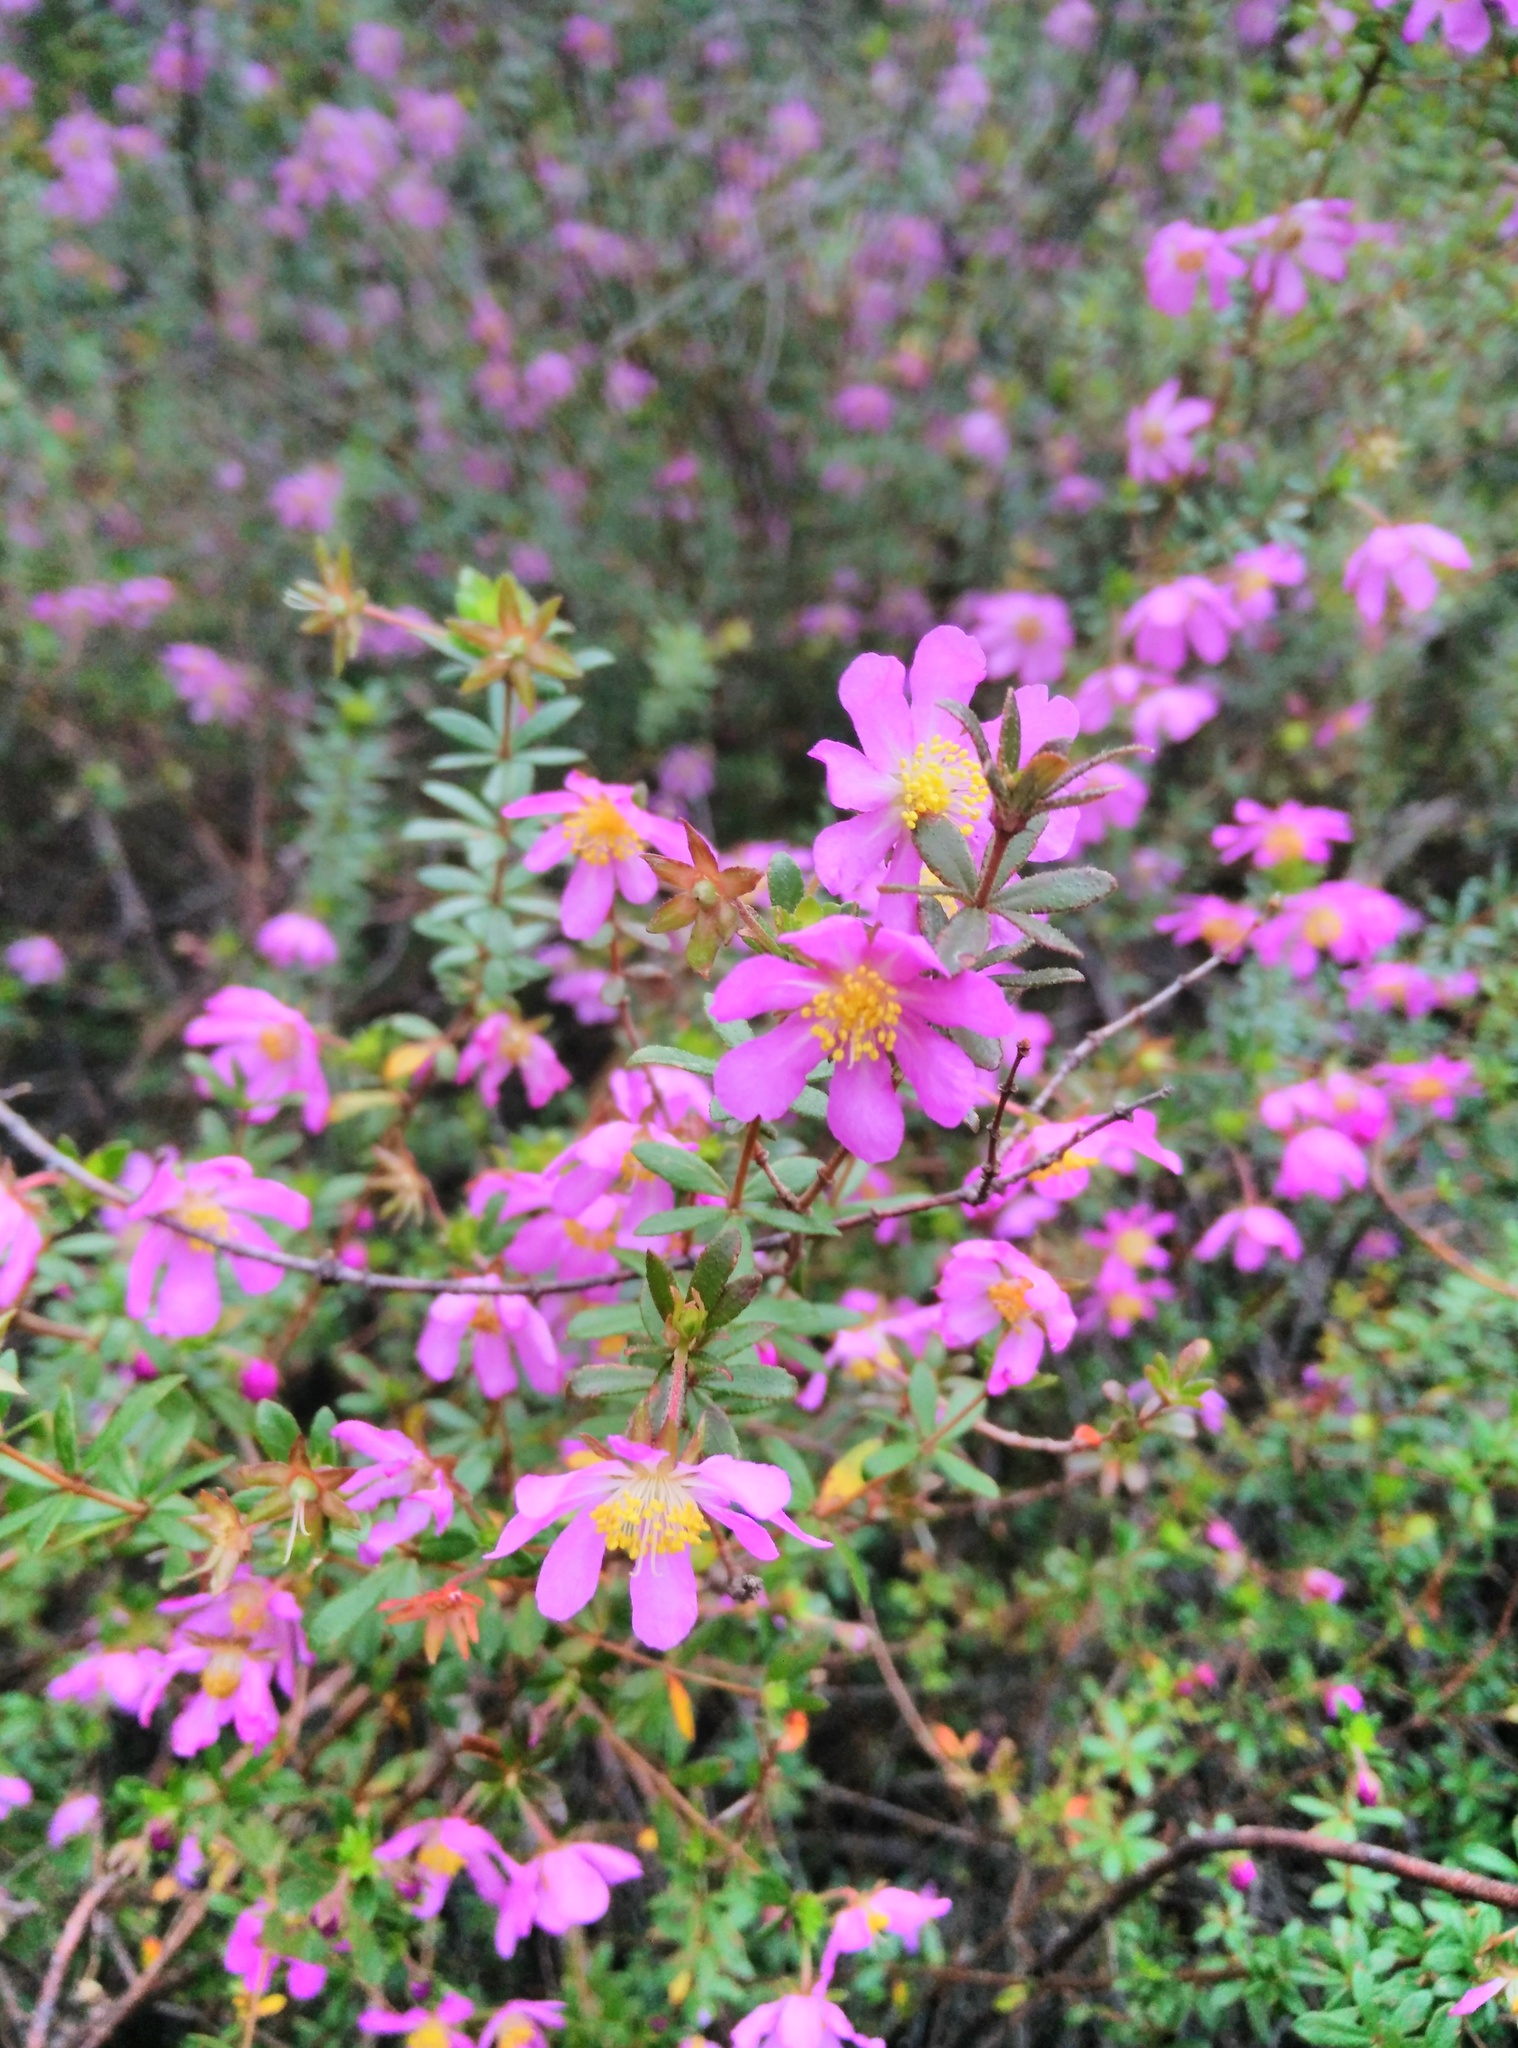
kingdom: Plantae
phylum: Tracheophyta
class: Magnoliopsida
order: Oxalidales
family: Cunoniaceae
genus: Bauera
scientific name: Bauera rubioides
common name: River-rose
